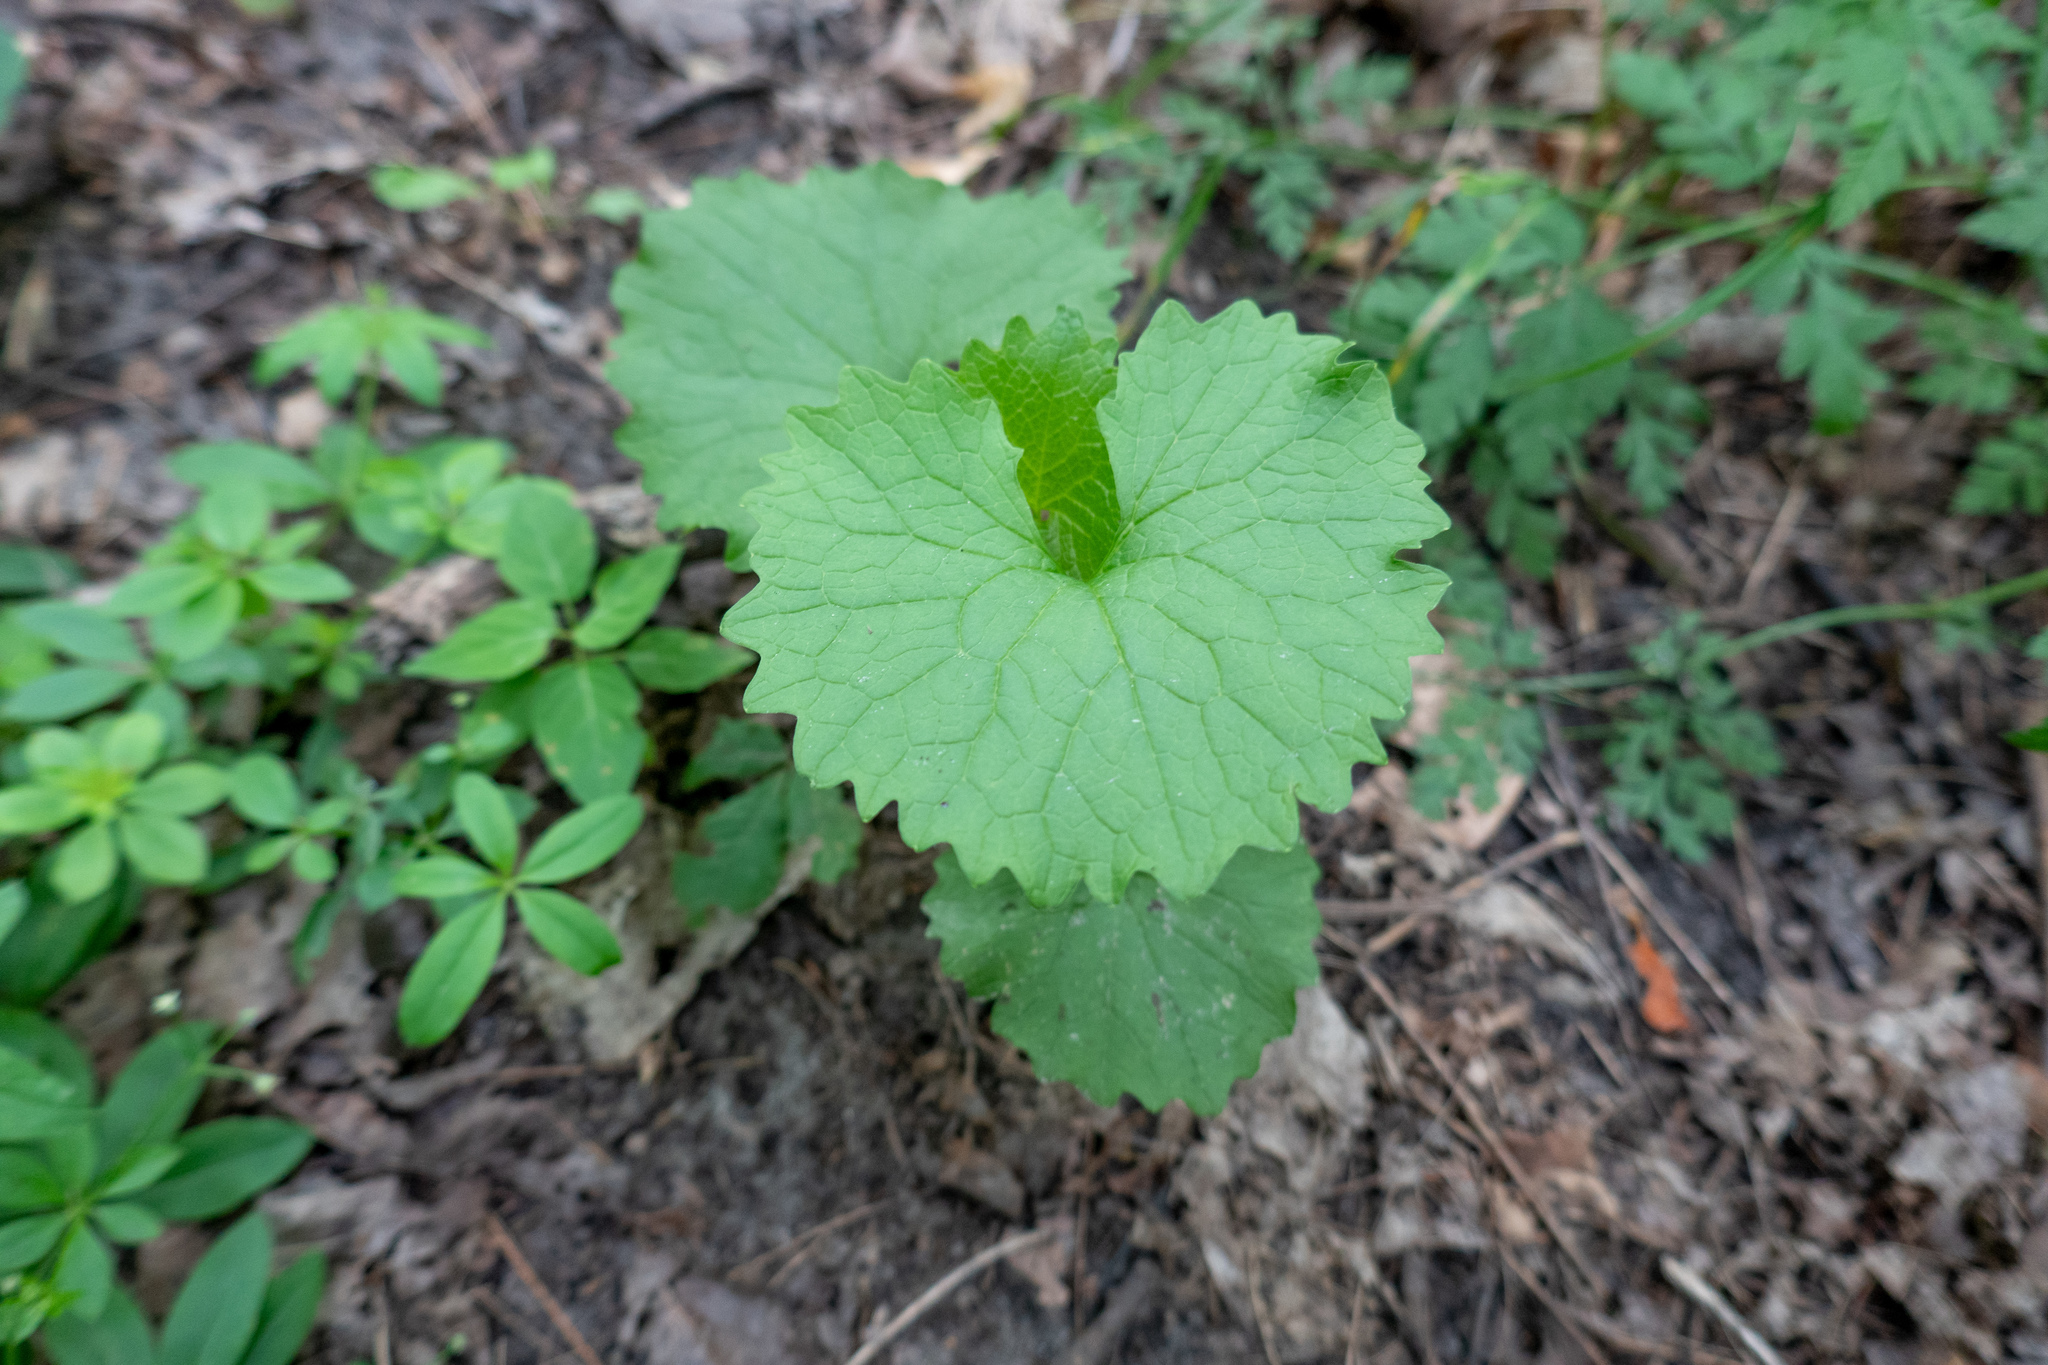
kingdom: Plantae
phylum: Tracheophyta
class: Magnoliopsida
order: Brassicales
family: Brassicaceae
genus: Alliaria
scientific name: Alliaria petiolata
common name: Garlic mustard
